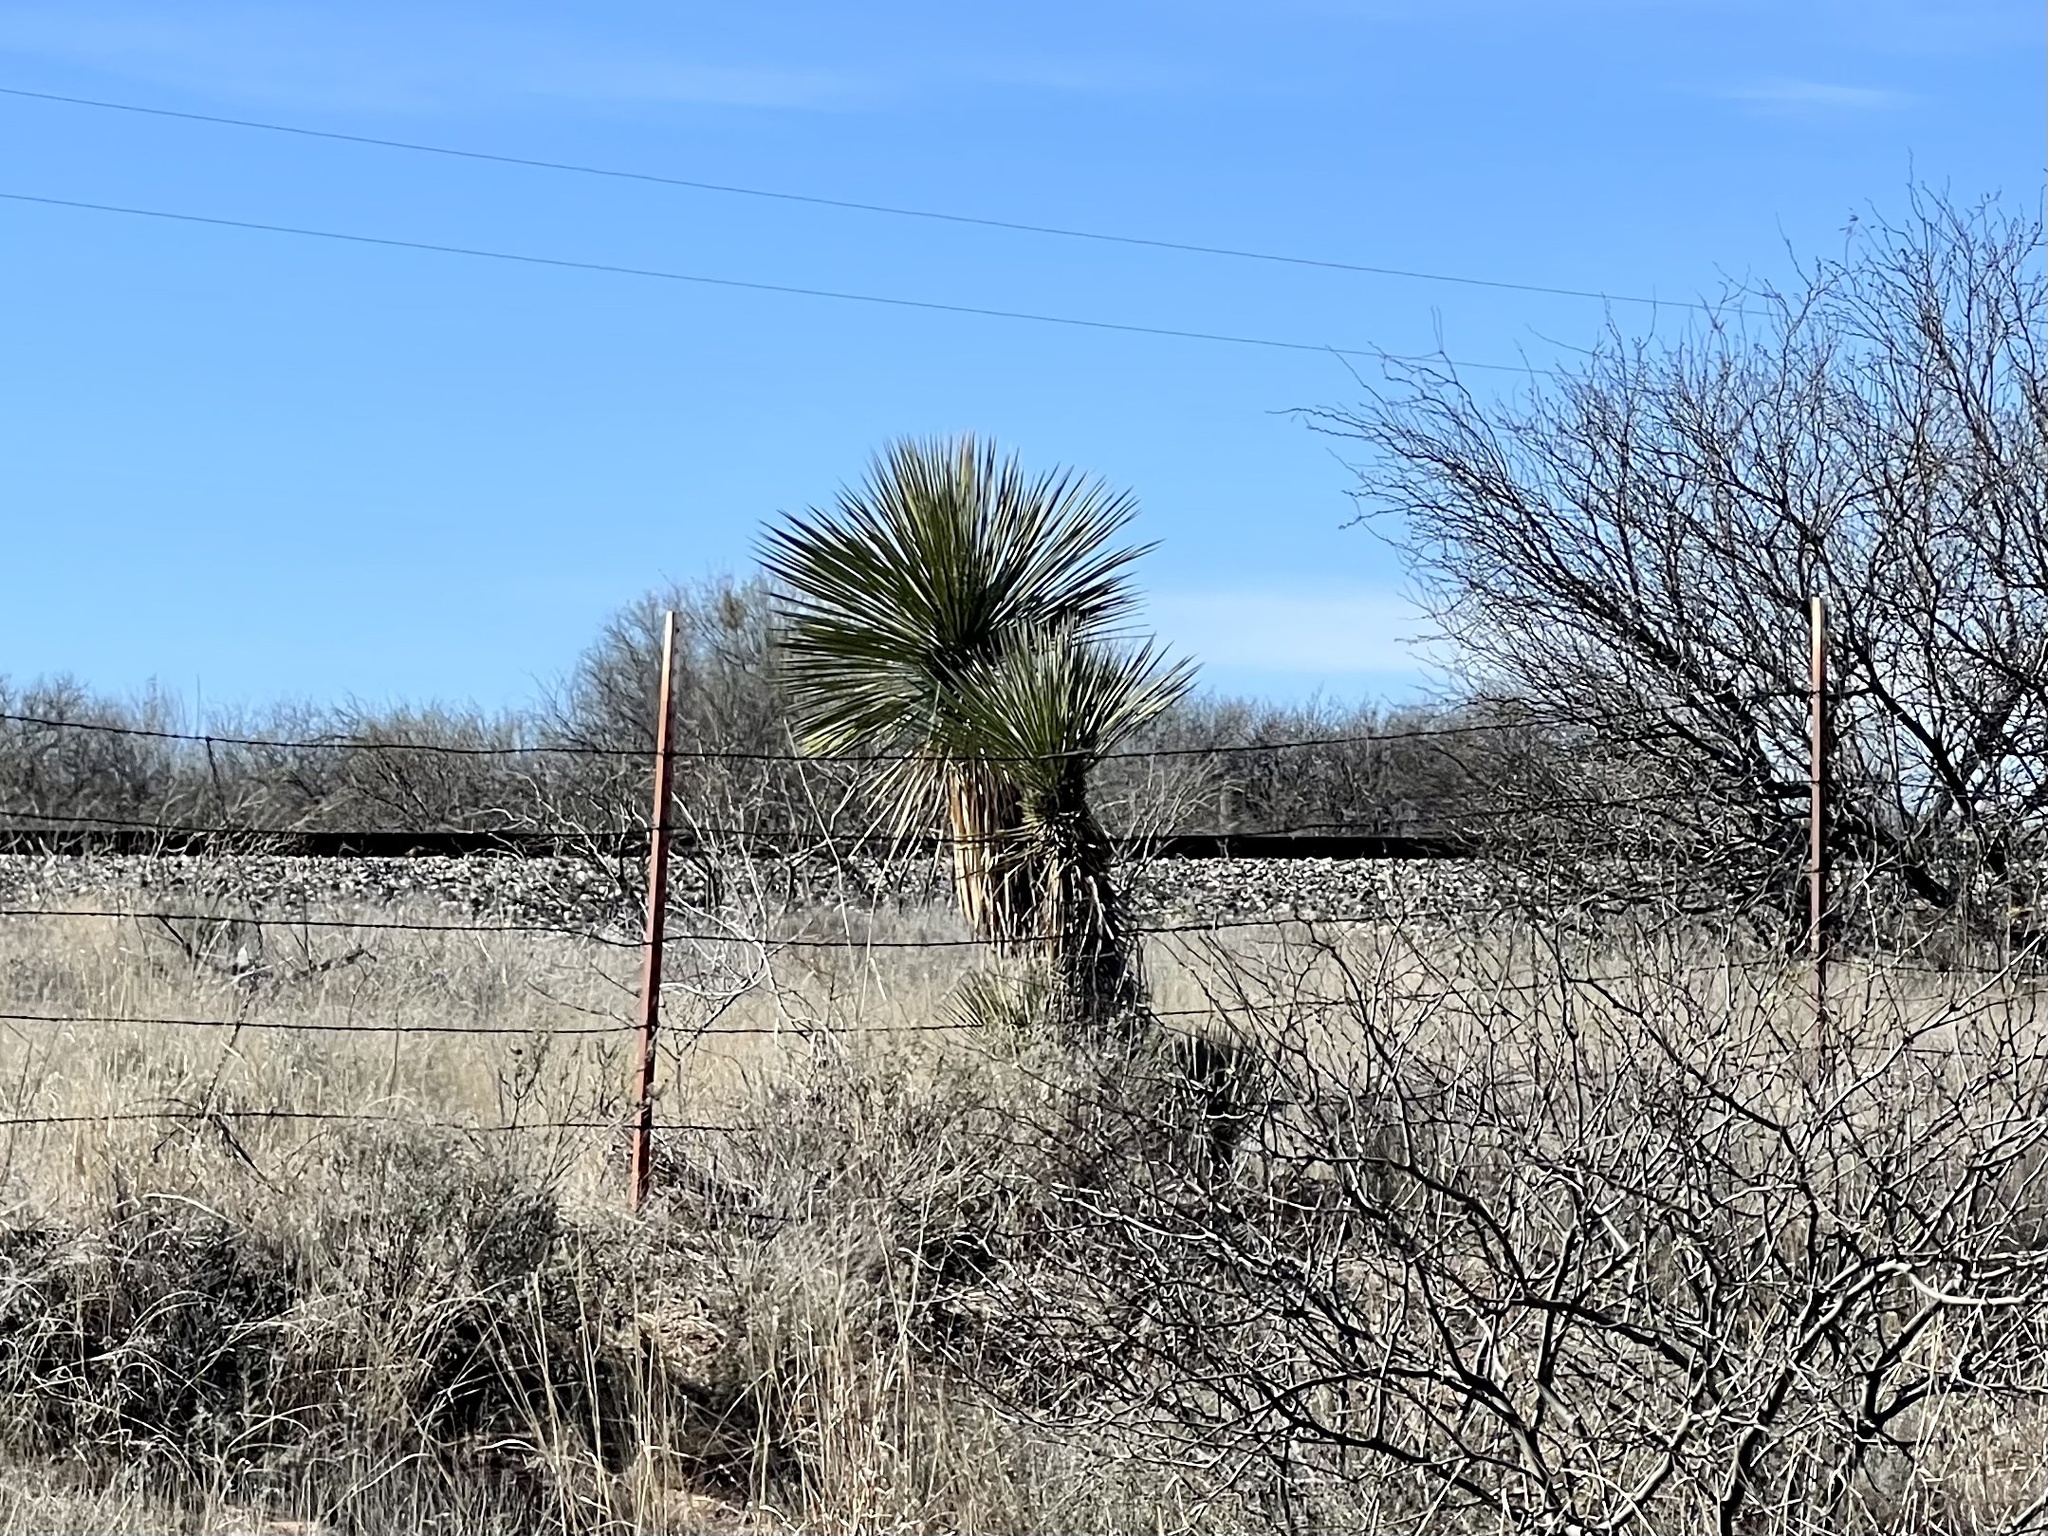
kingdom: Plantae
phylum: Tracheophyta
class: Liliopsida
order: Asparagales
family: Asparagaceae
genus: Yucca
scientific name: Yucca elata
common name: Palmella
